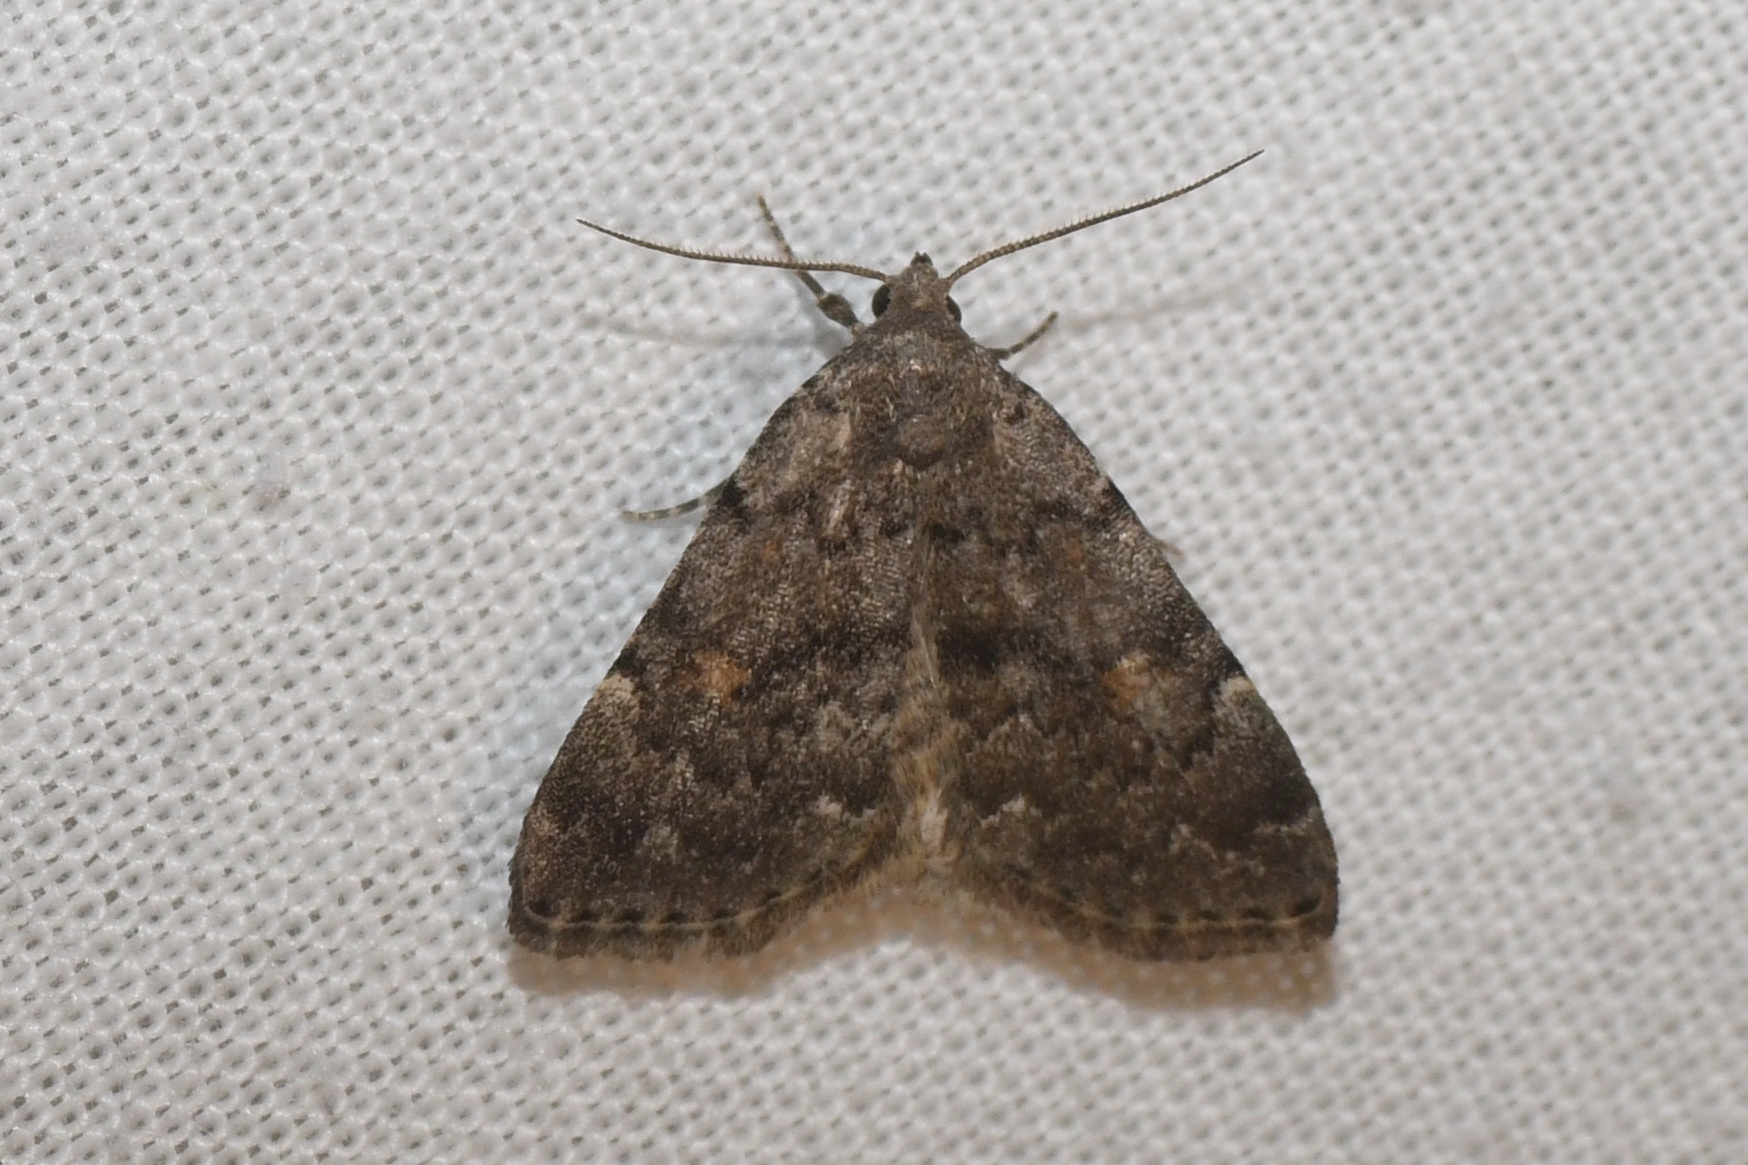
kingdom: Animalia
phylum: Arthropoda
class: Insecta
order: Lepidoptera
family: Erebidae
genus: Idia
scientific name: Idia aemula
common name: Common idia moth
